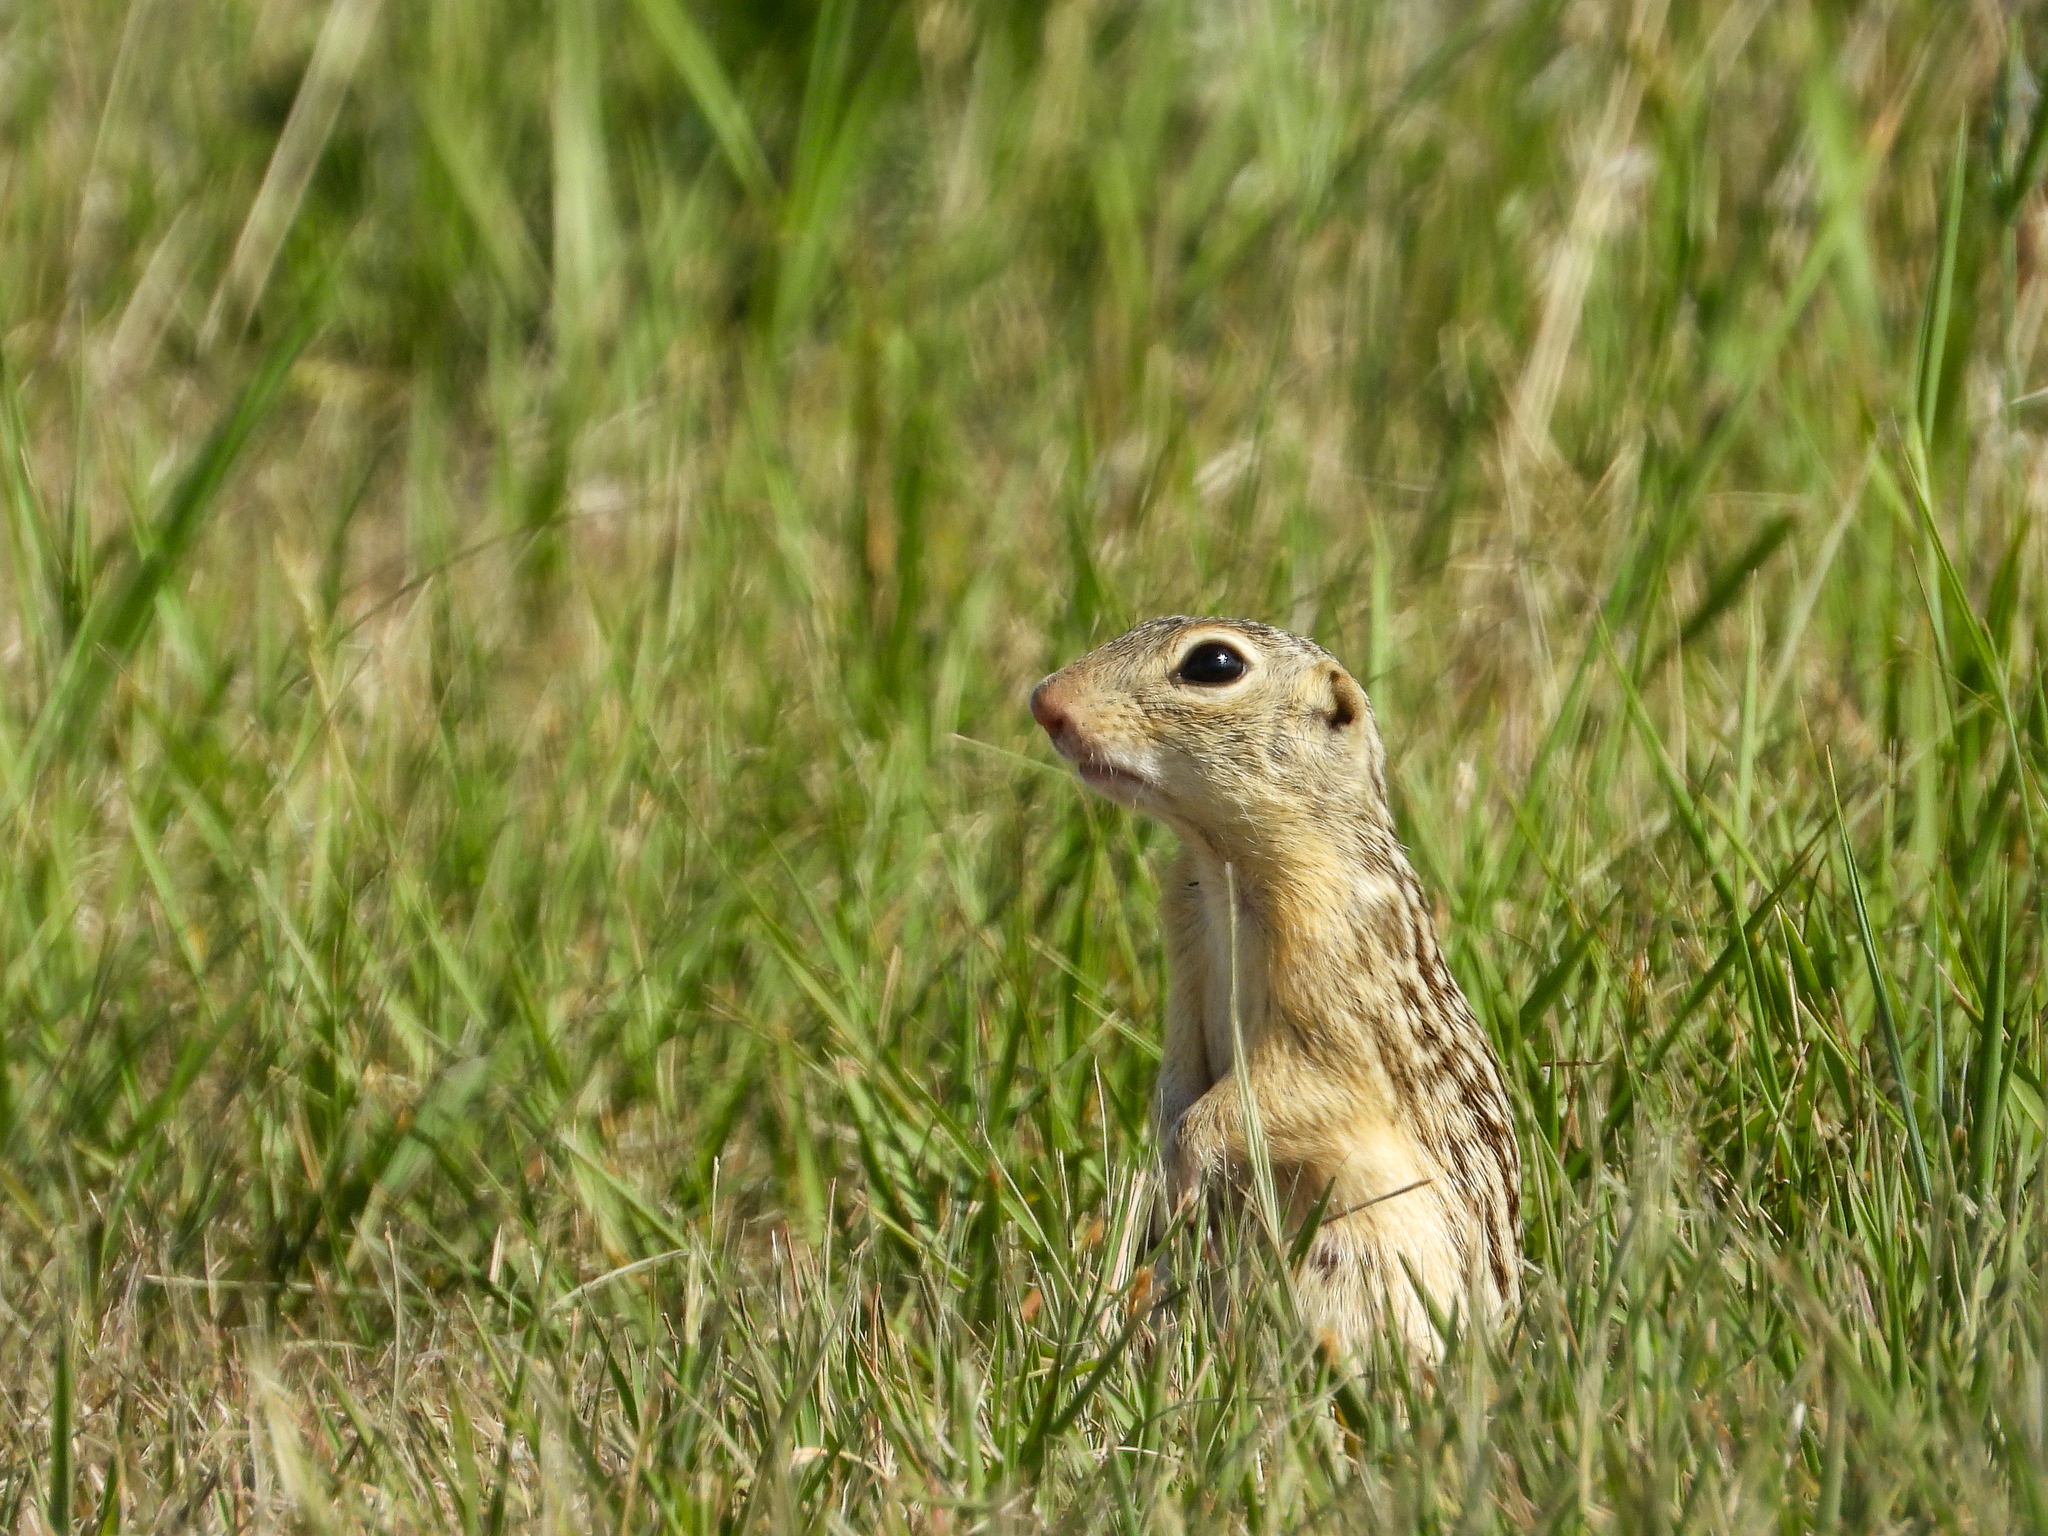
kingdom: Animalia
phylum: Chordata
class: Mammalia
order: Rodentia
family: Sciuridae
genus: Ictidomys
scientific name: Ictidomys tridecemlineatus
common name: Thirteen-lined ground squirrel
